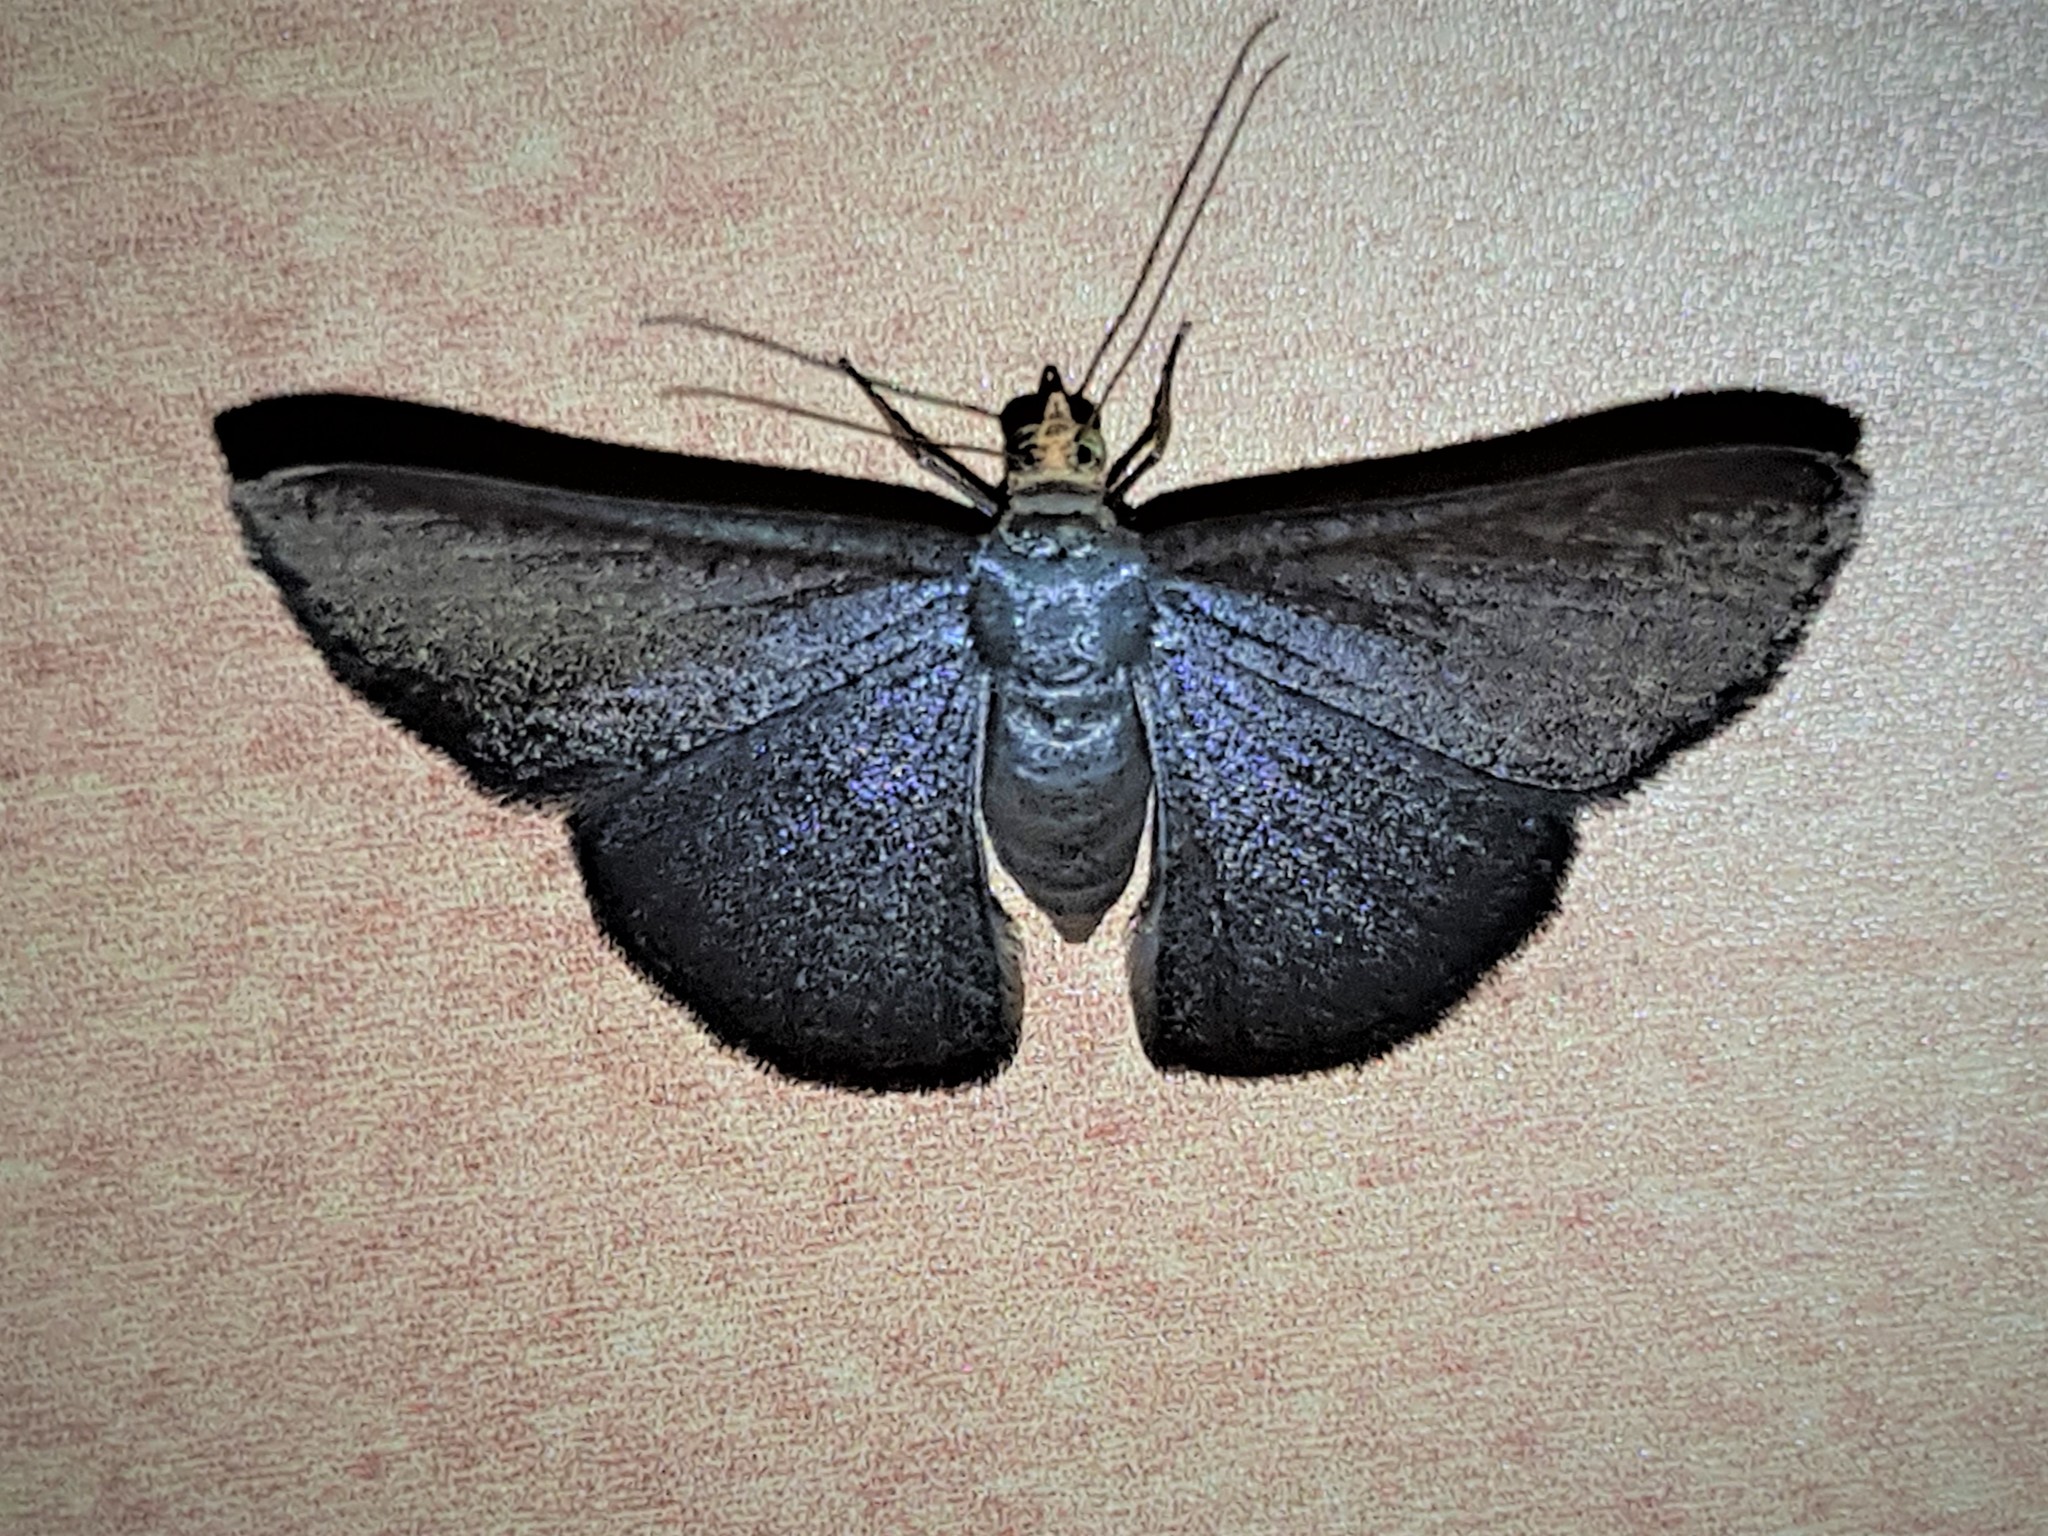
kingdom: Animalia
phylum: Arthropoda
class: Insecta
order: Lepidoptera
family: Geometridae
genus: Gyostega
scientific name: Gyostega violacea
